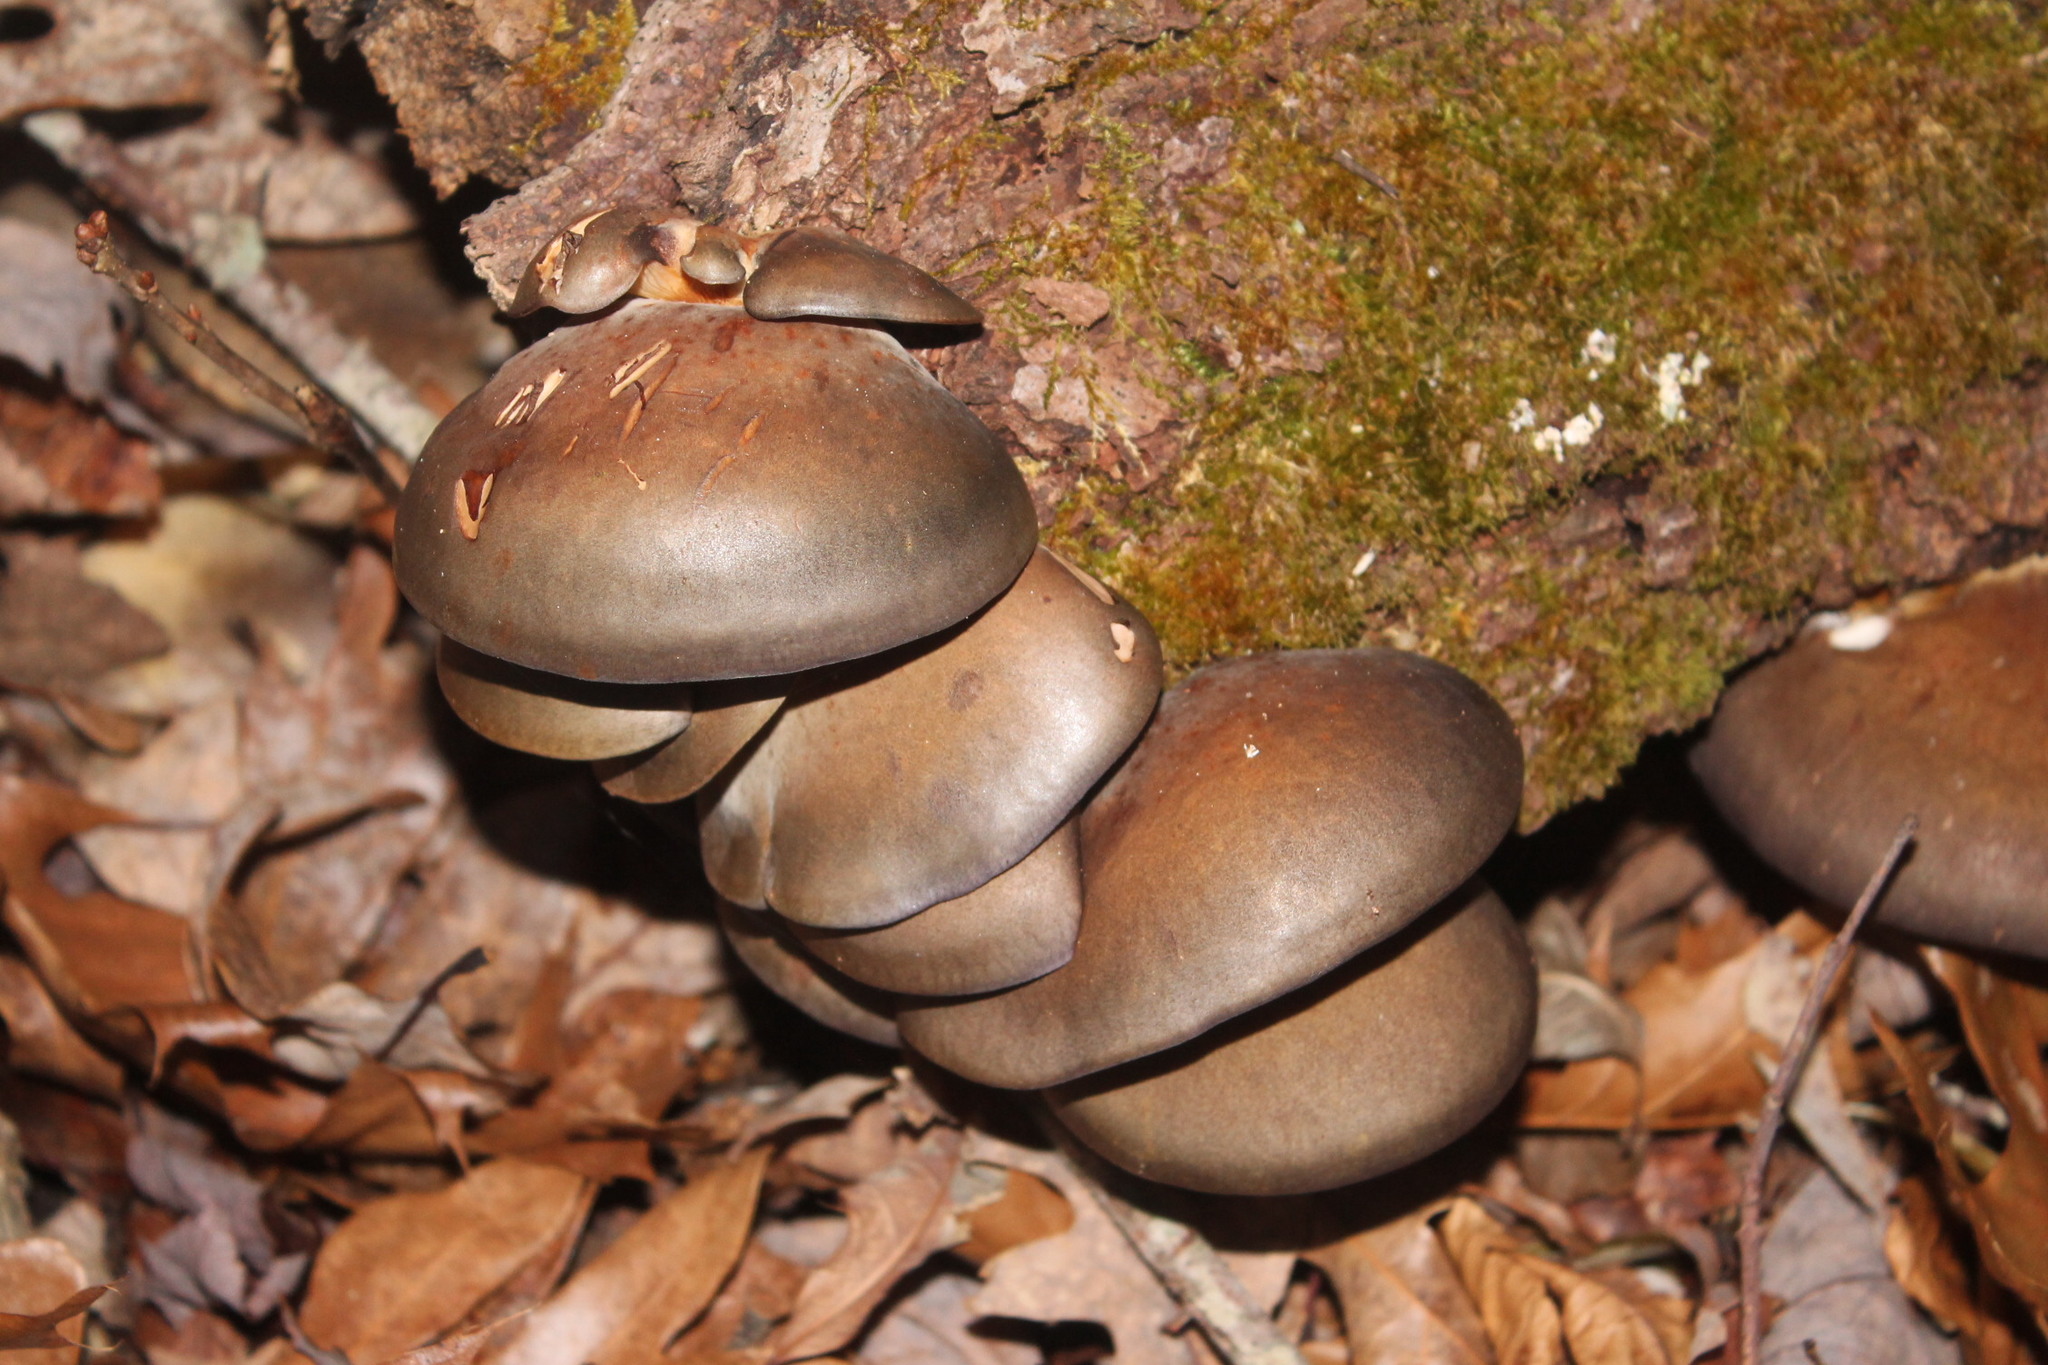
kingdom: Fungi
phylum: Basidiomycota
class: Agaricomycetes
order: Agaricales
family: Sarcomyxaceae
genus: Sarcomyxa
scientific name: Sarcomyxa serotina
